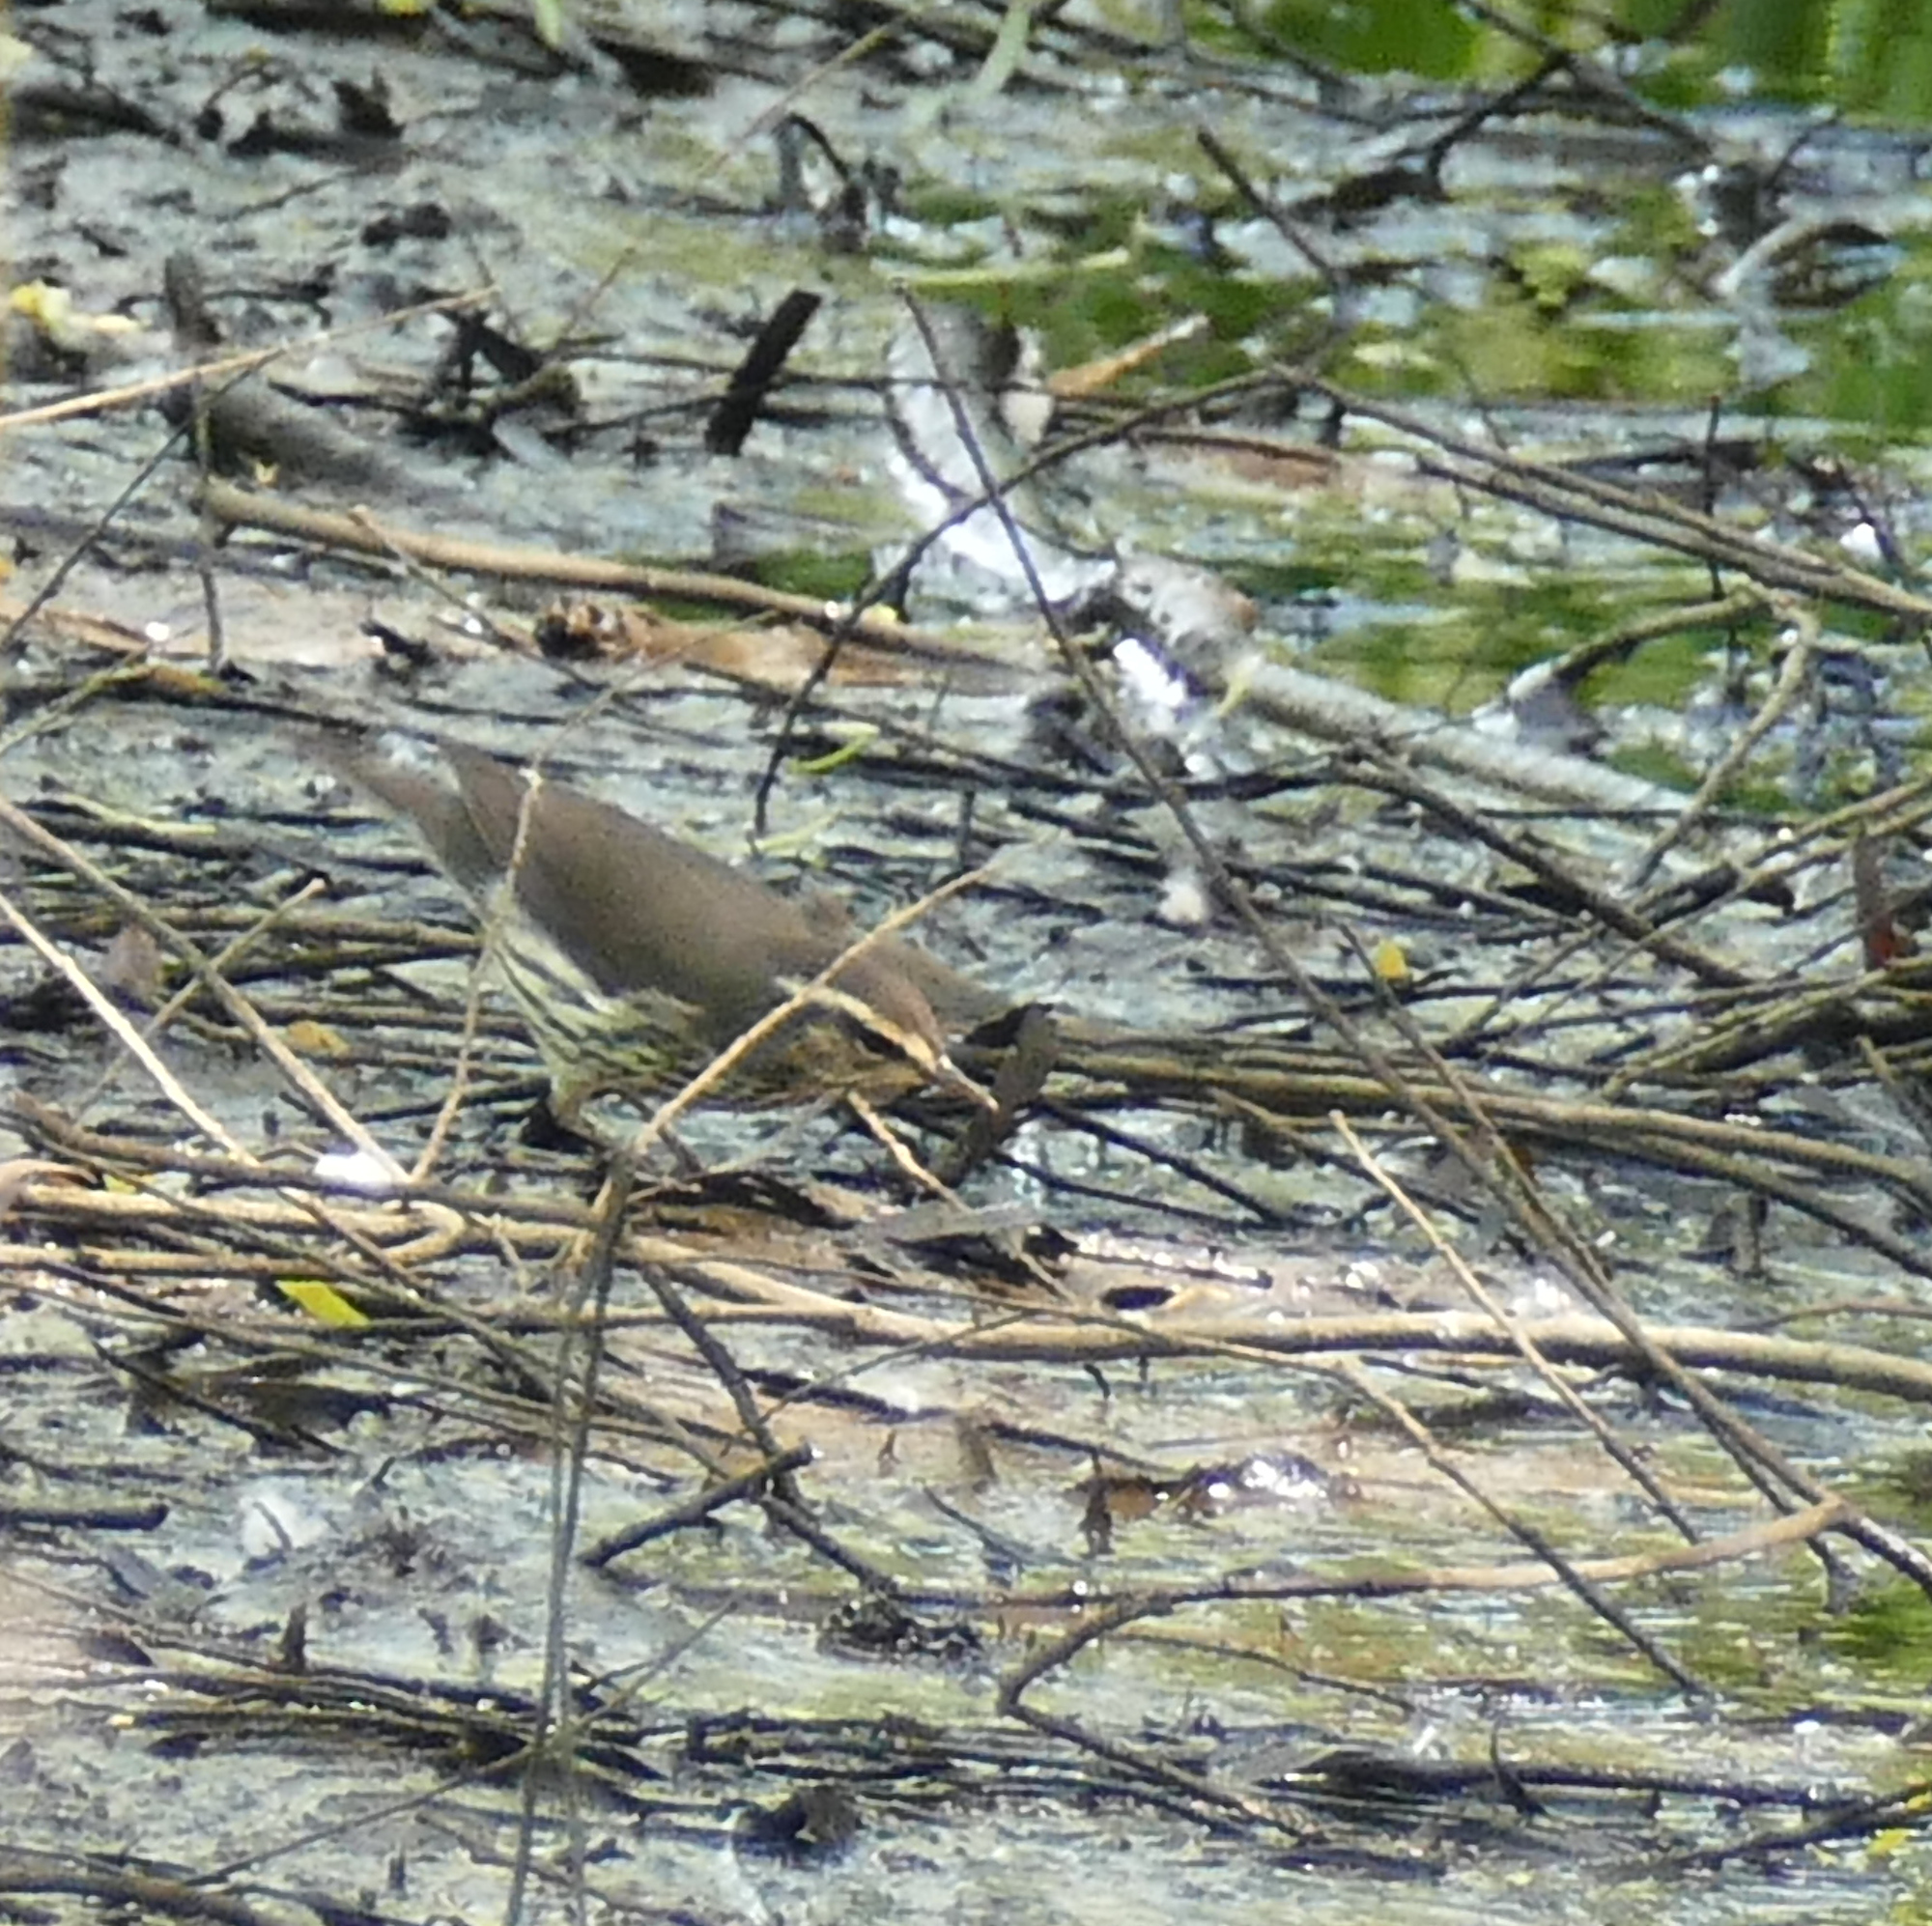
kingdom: Animalia
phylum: Chordata
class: Aves
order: Passeriformes
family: Parulidae
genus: Parkesia
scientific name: Parkesia noveboracensis
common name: Northern waterthrush
